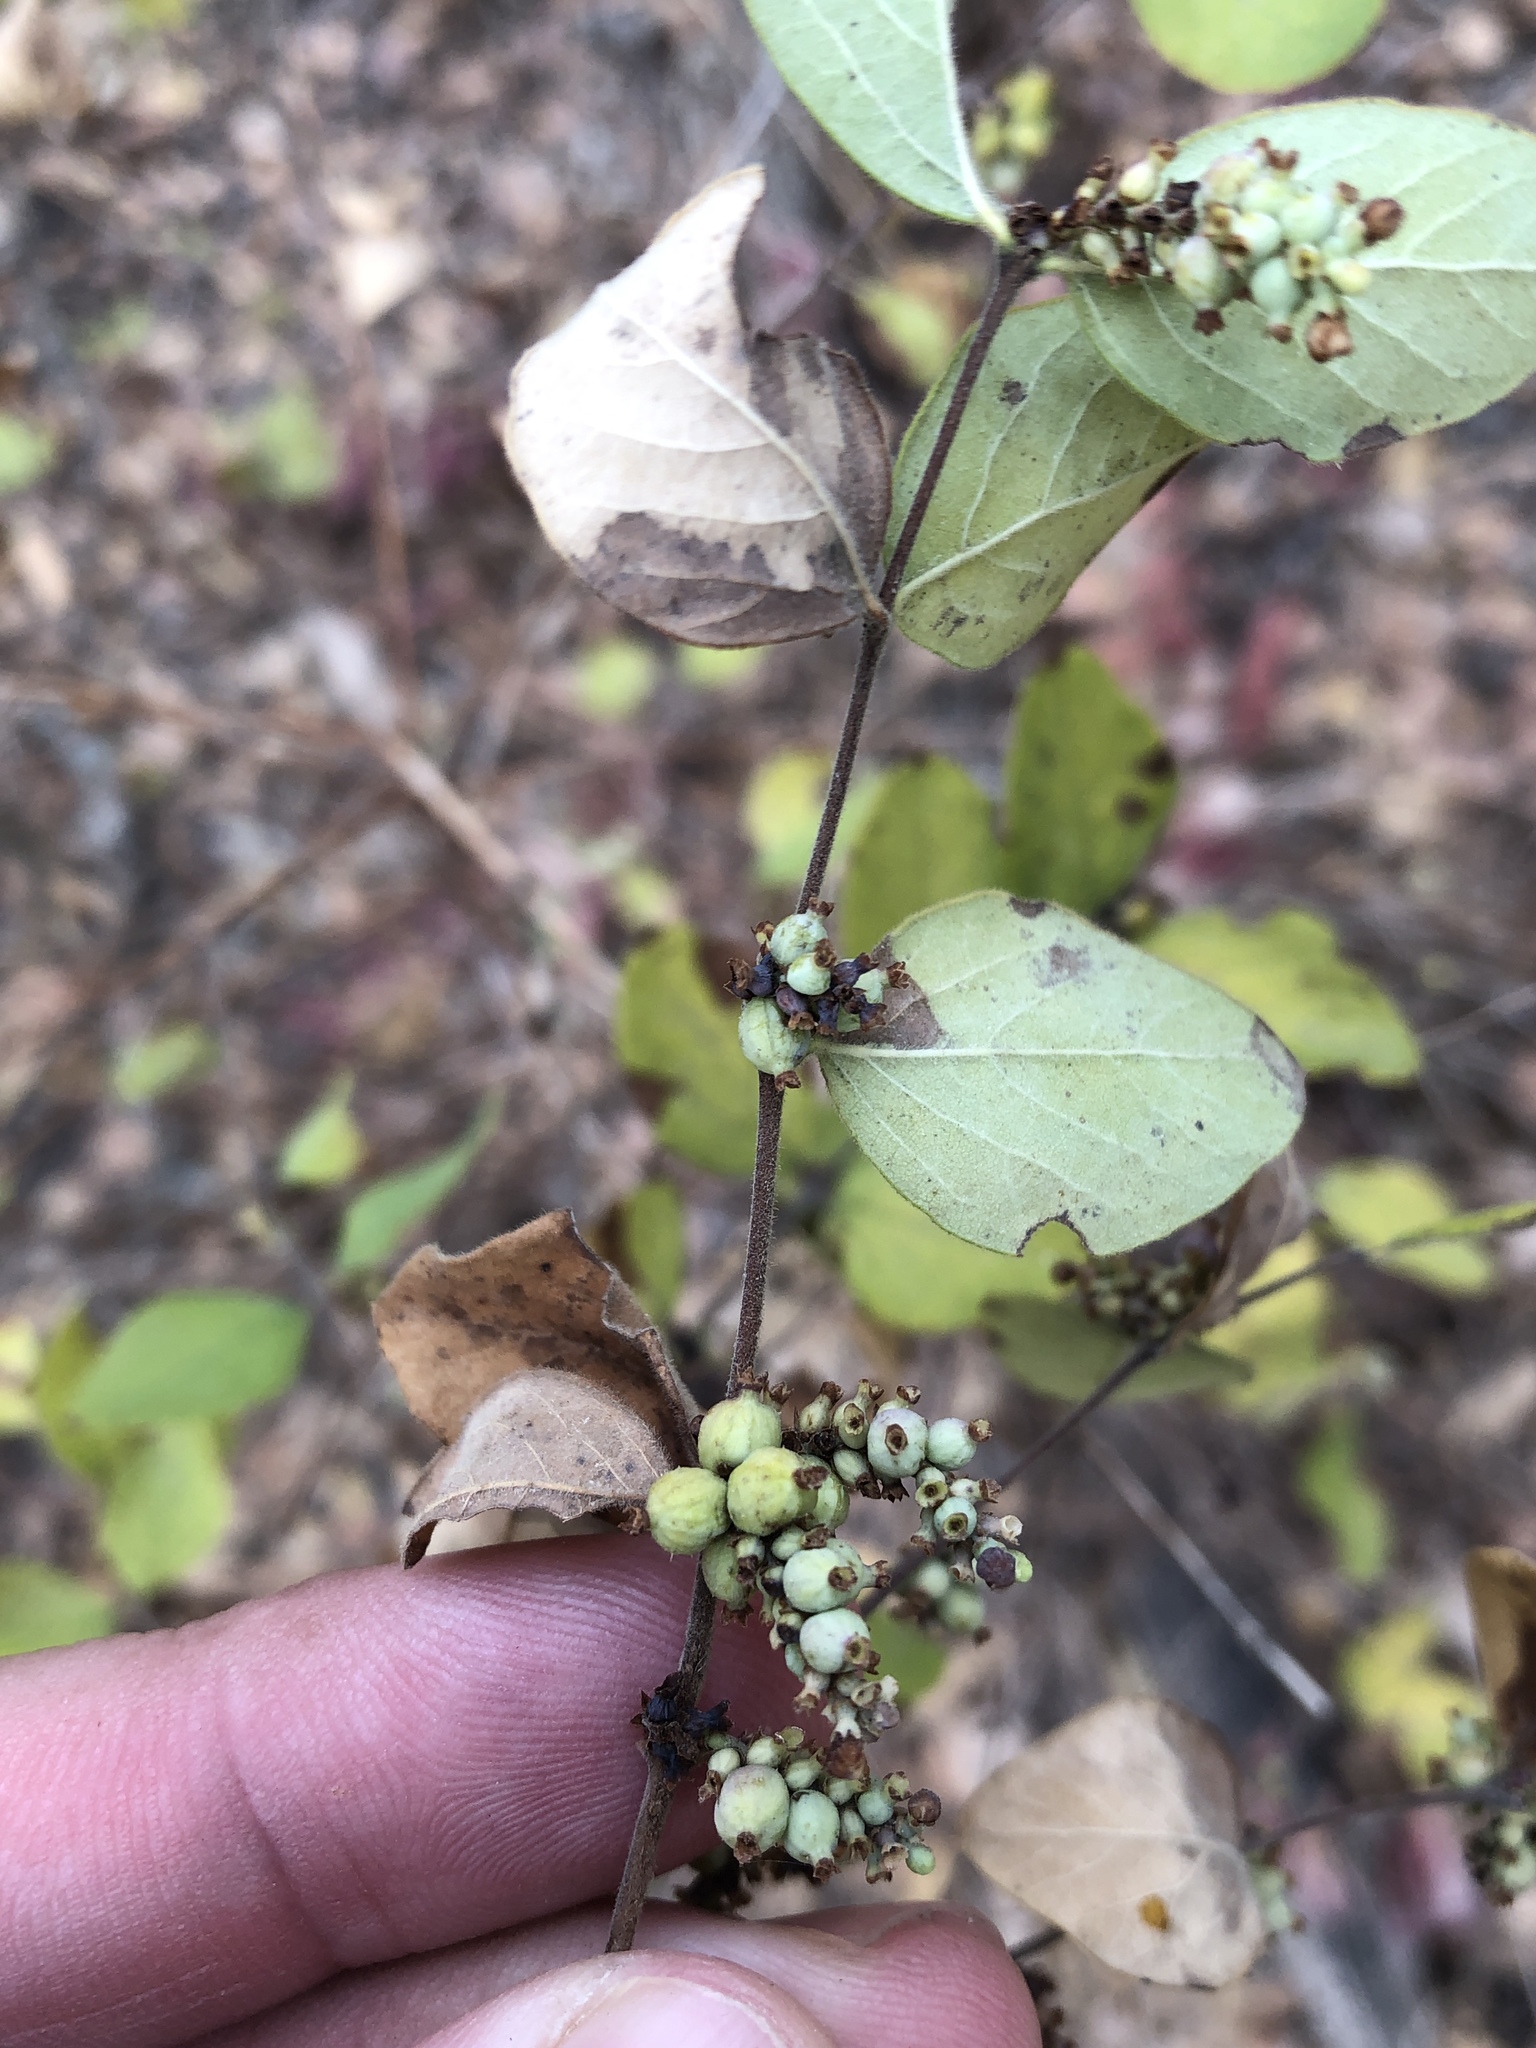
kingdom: Plantae
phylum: Tracheophyta
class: Magnoliopsida
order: Dipsacales
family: Caprifoliaceae
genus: Symphoricarpos
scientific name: Symphoricarpos orbiculatus
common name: Coralberry
